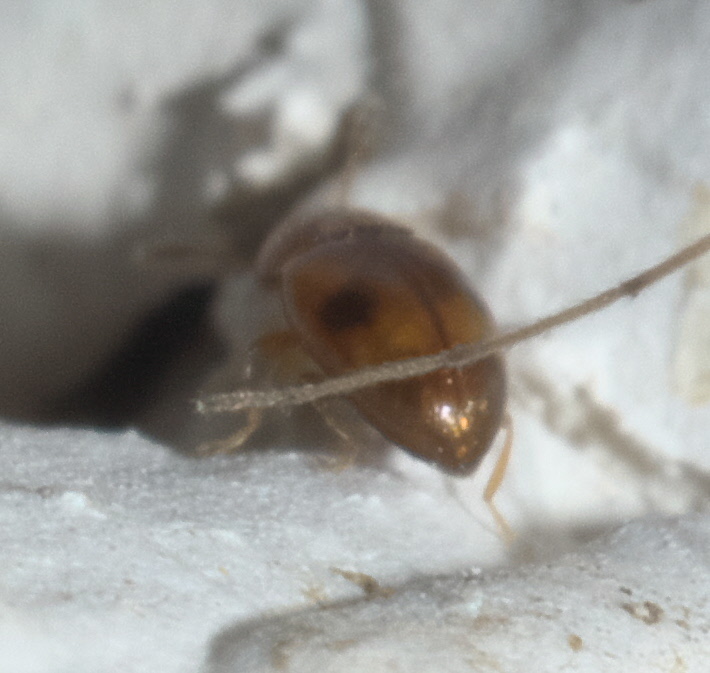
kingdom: Animalia
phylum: Arthropoda
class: Insecta
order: Coleoptera
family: Erotylidae
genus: Toramus
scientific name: Toramus pulchellus
